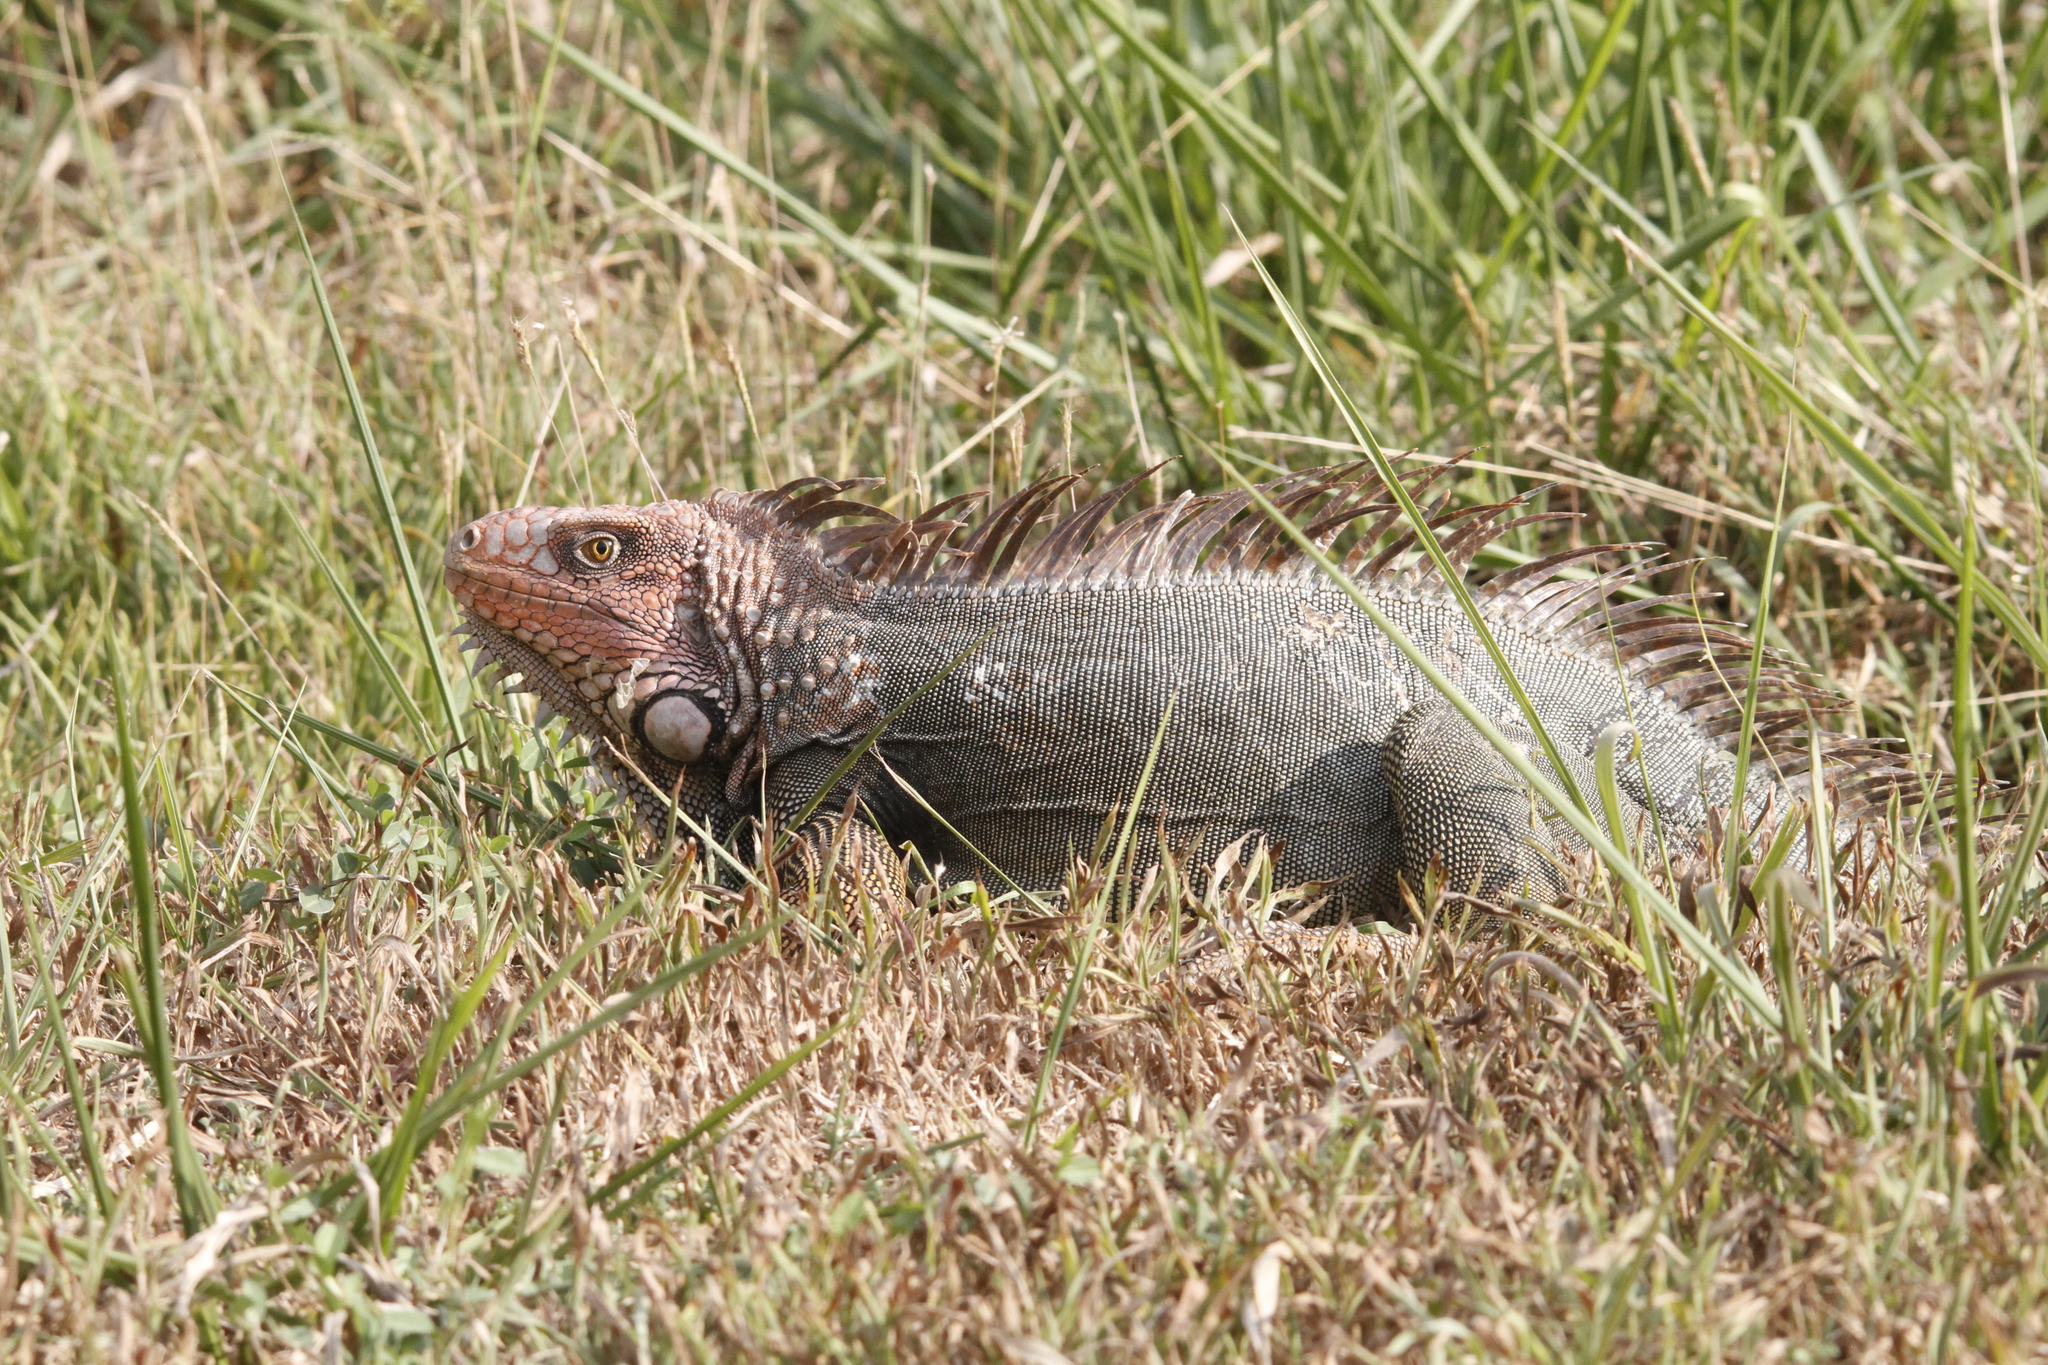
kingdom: Animalia
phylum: Chordata
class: Squamata
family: Iguanidae
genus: Iguana
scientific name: Iguana iguana
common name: Green iguana
